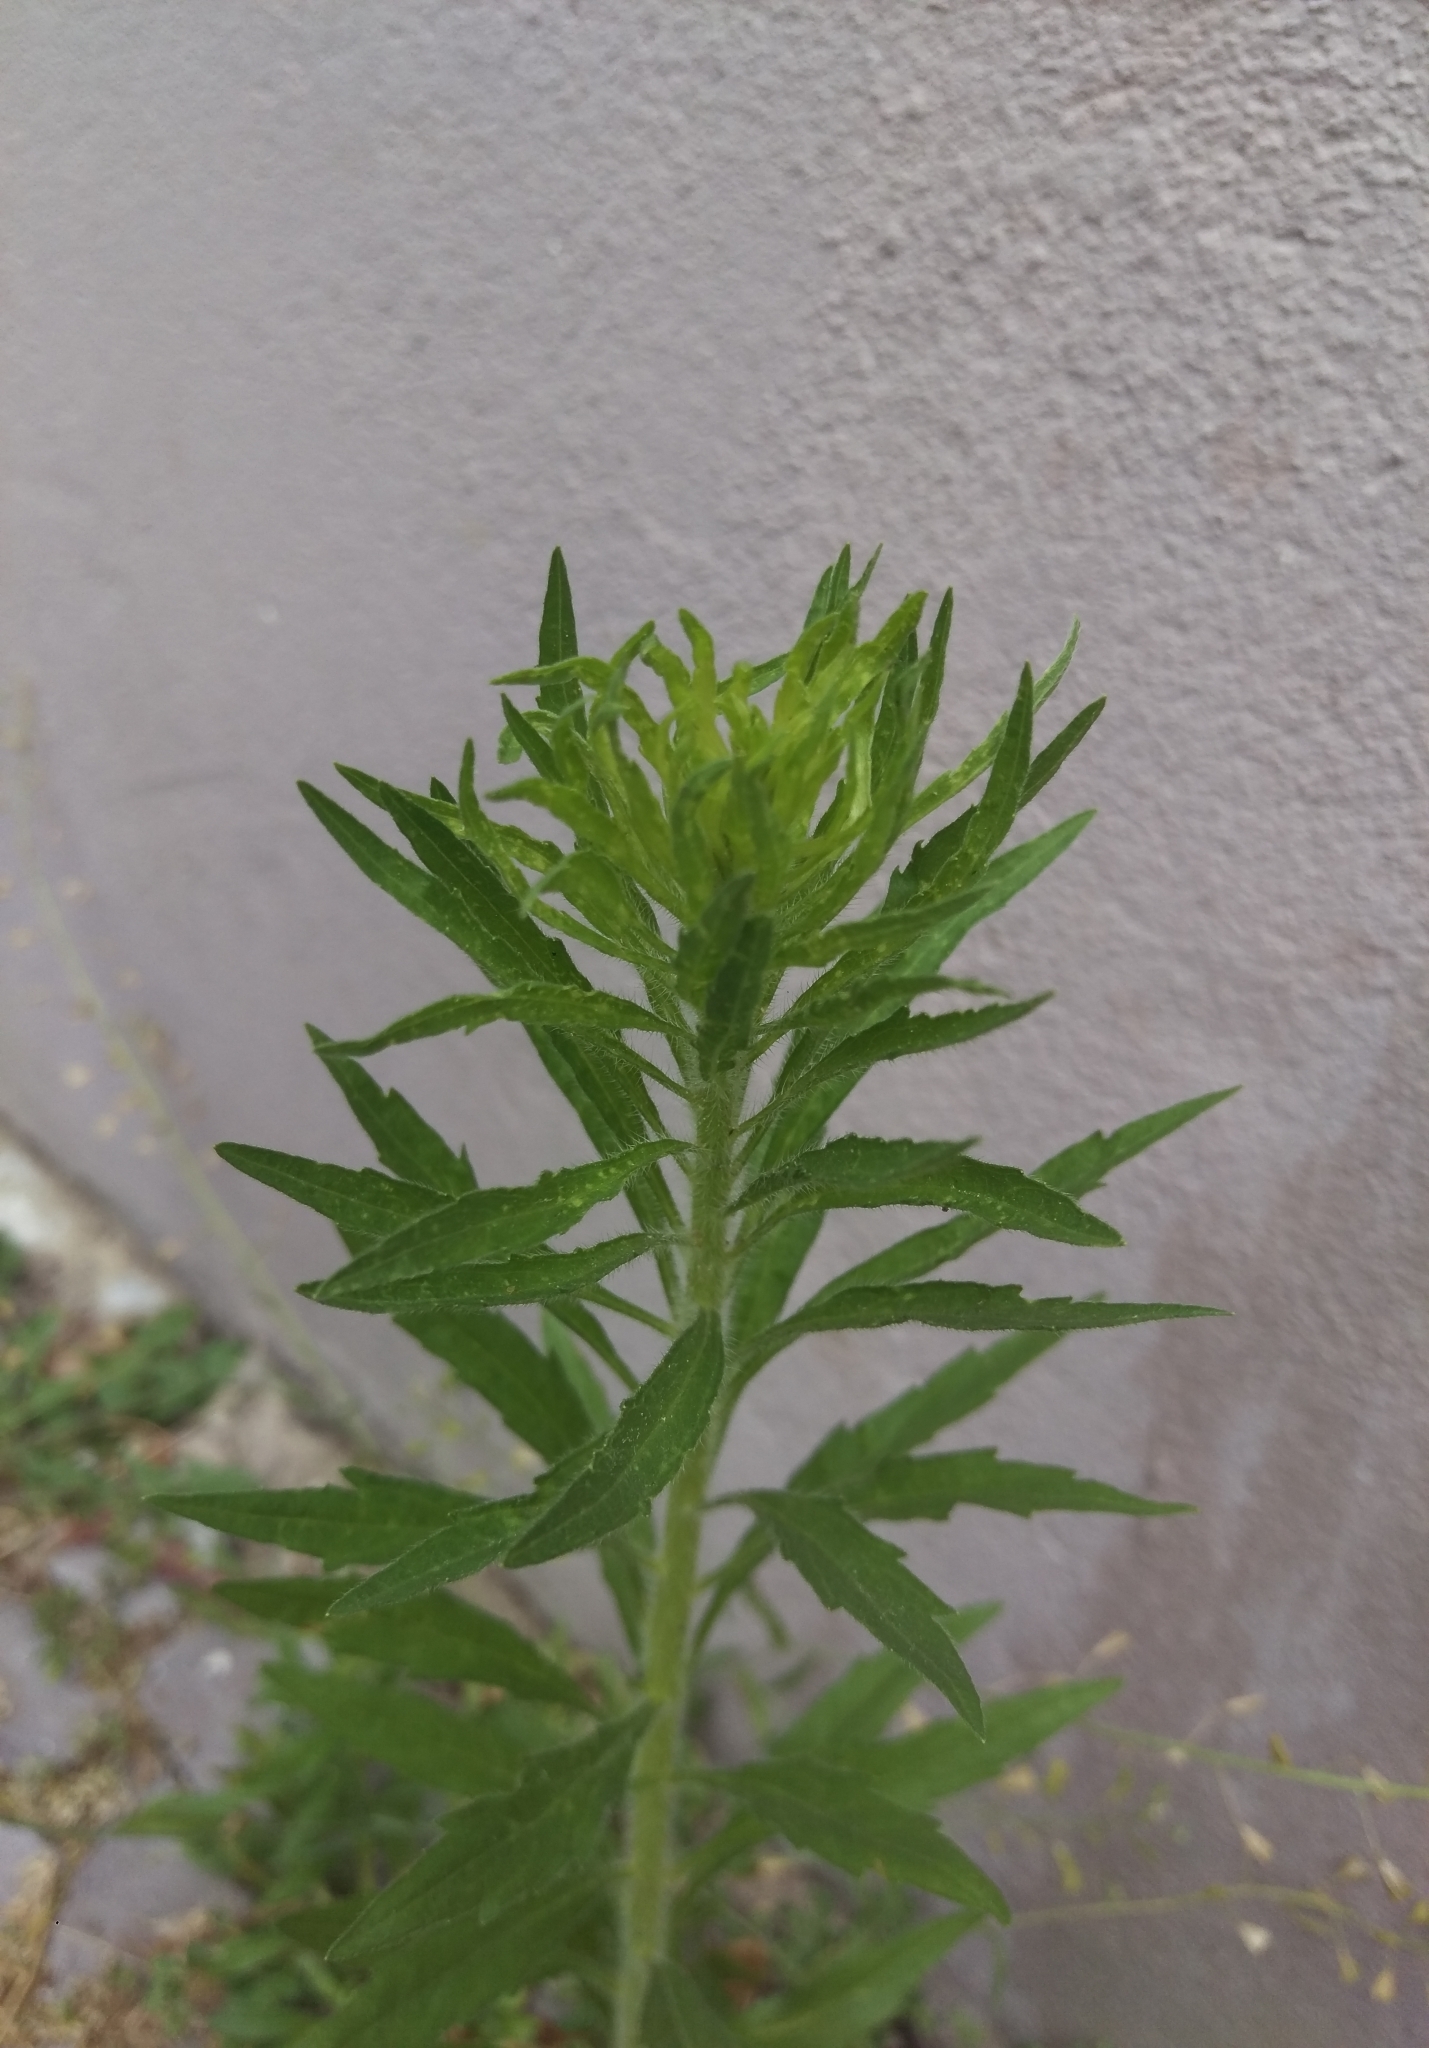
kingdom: Plantae
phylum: Tracheophyta
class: Magnoliopsida
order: Asterales
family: Asteraceae
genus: Erigeron
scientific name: Erigeron canadensis
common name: Canadian fleabane
